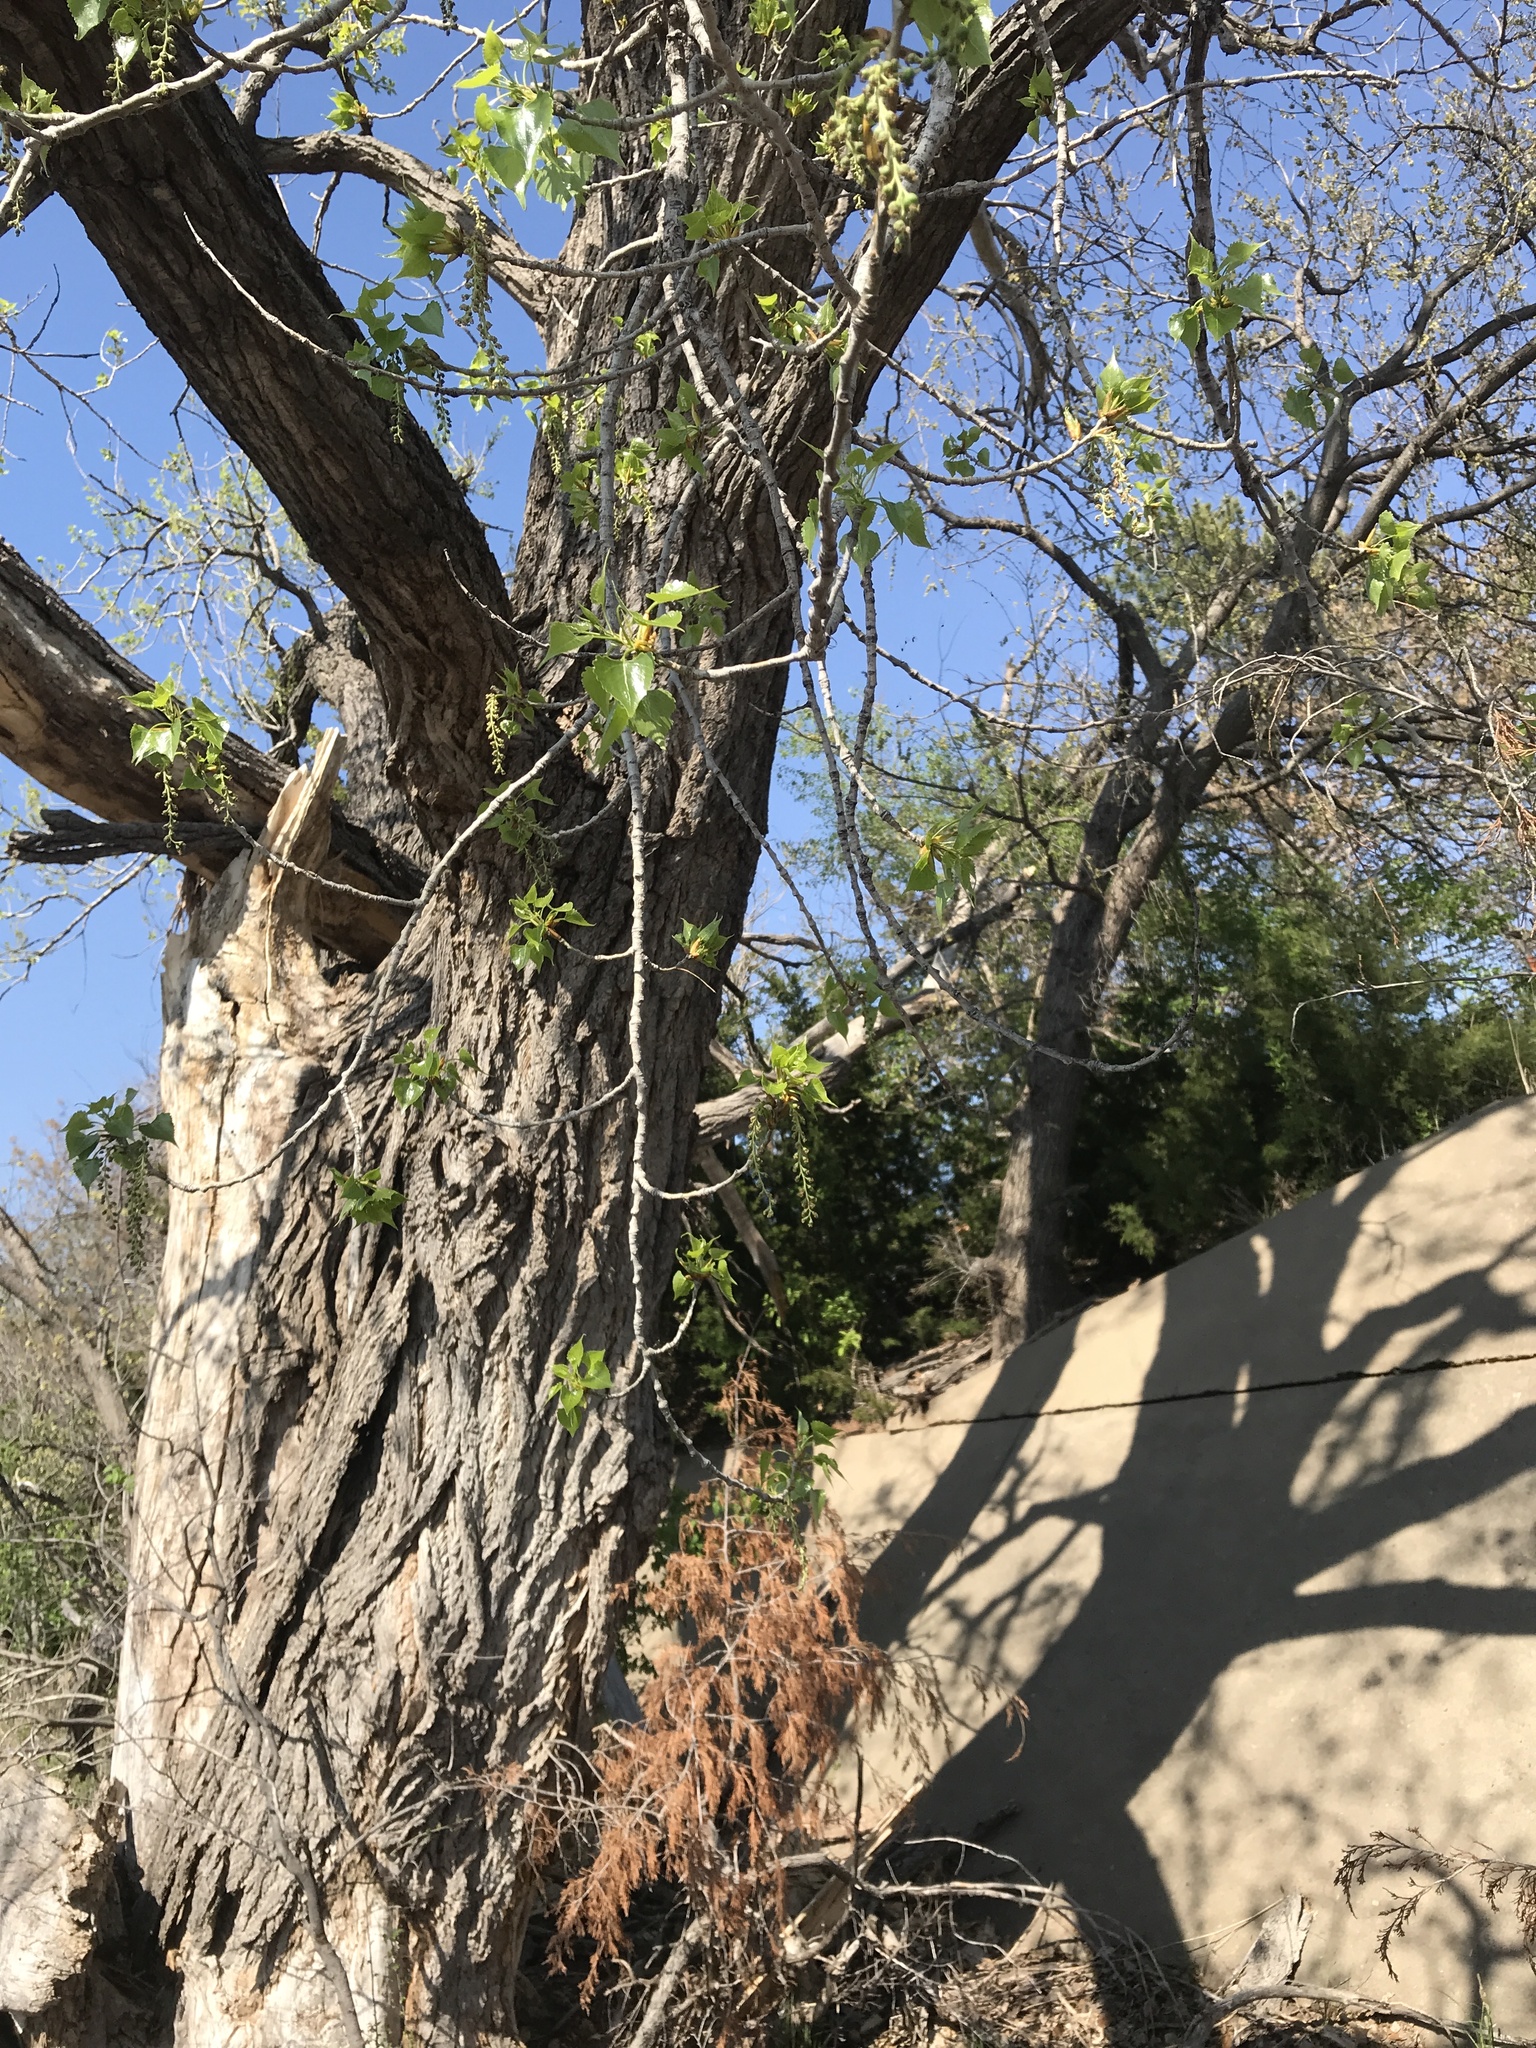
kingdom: Plantae
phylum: Tracheophyta
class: Magnoliopsida
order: Malpighiales
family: Salicaceae
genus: Populus
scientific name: Populus deltoides
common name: Eastern cottonwood
